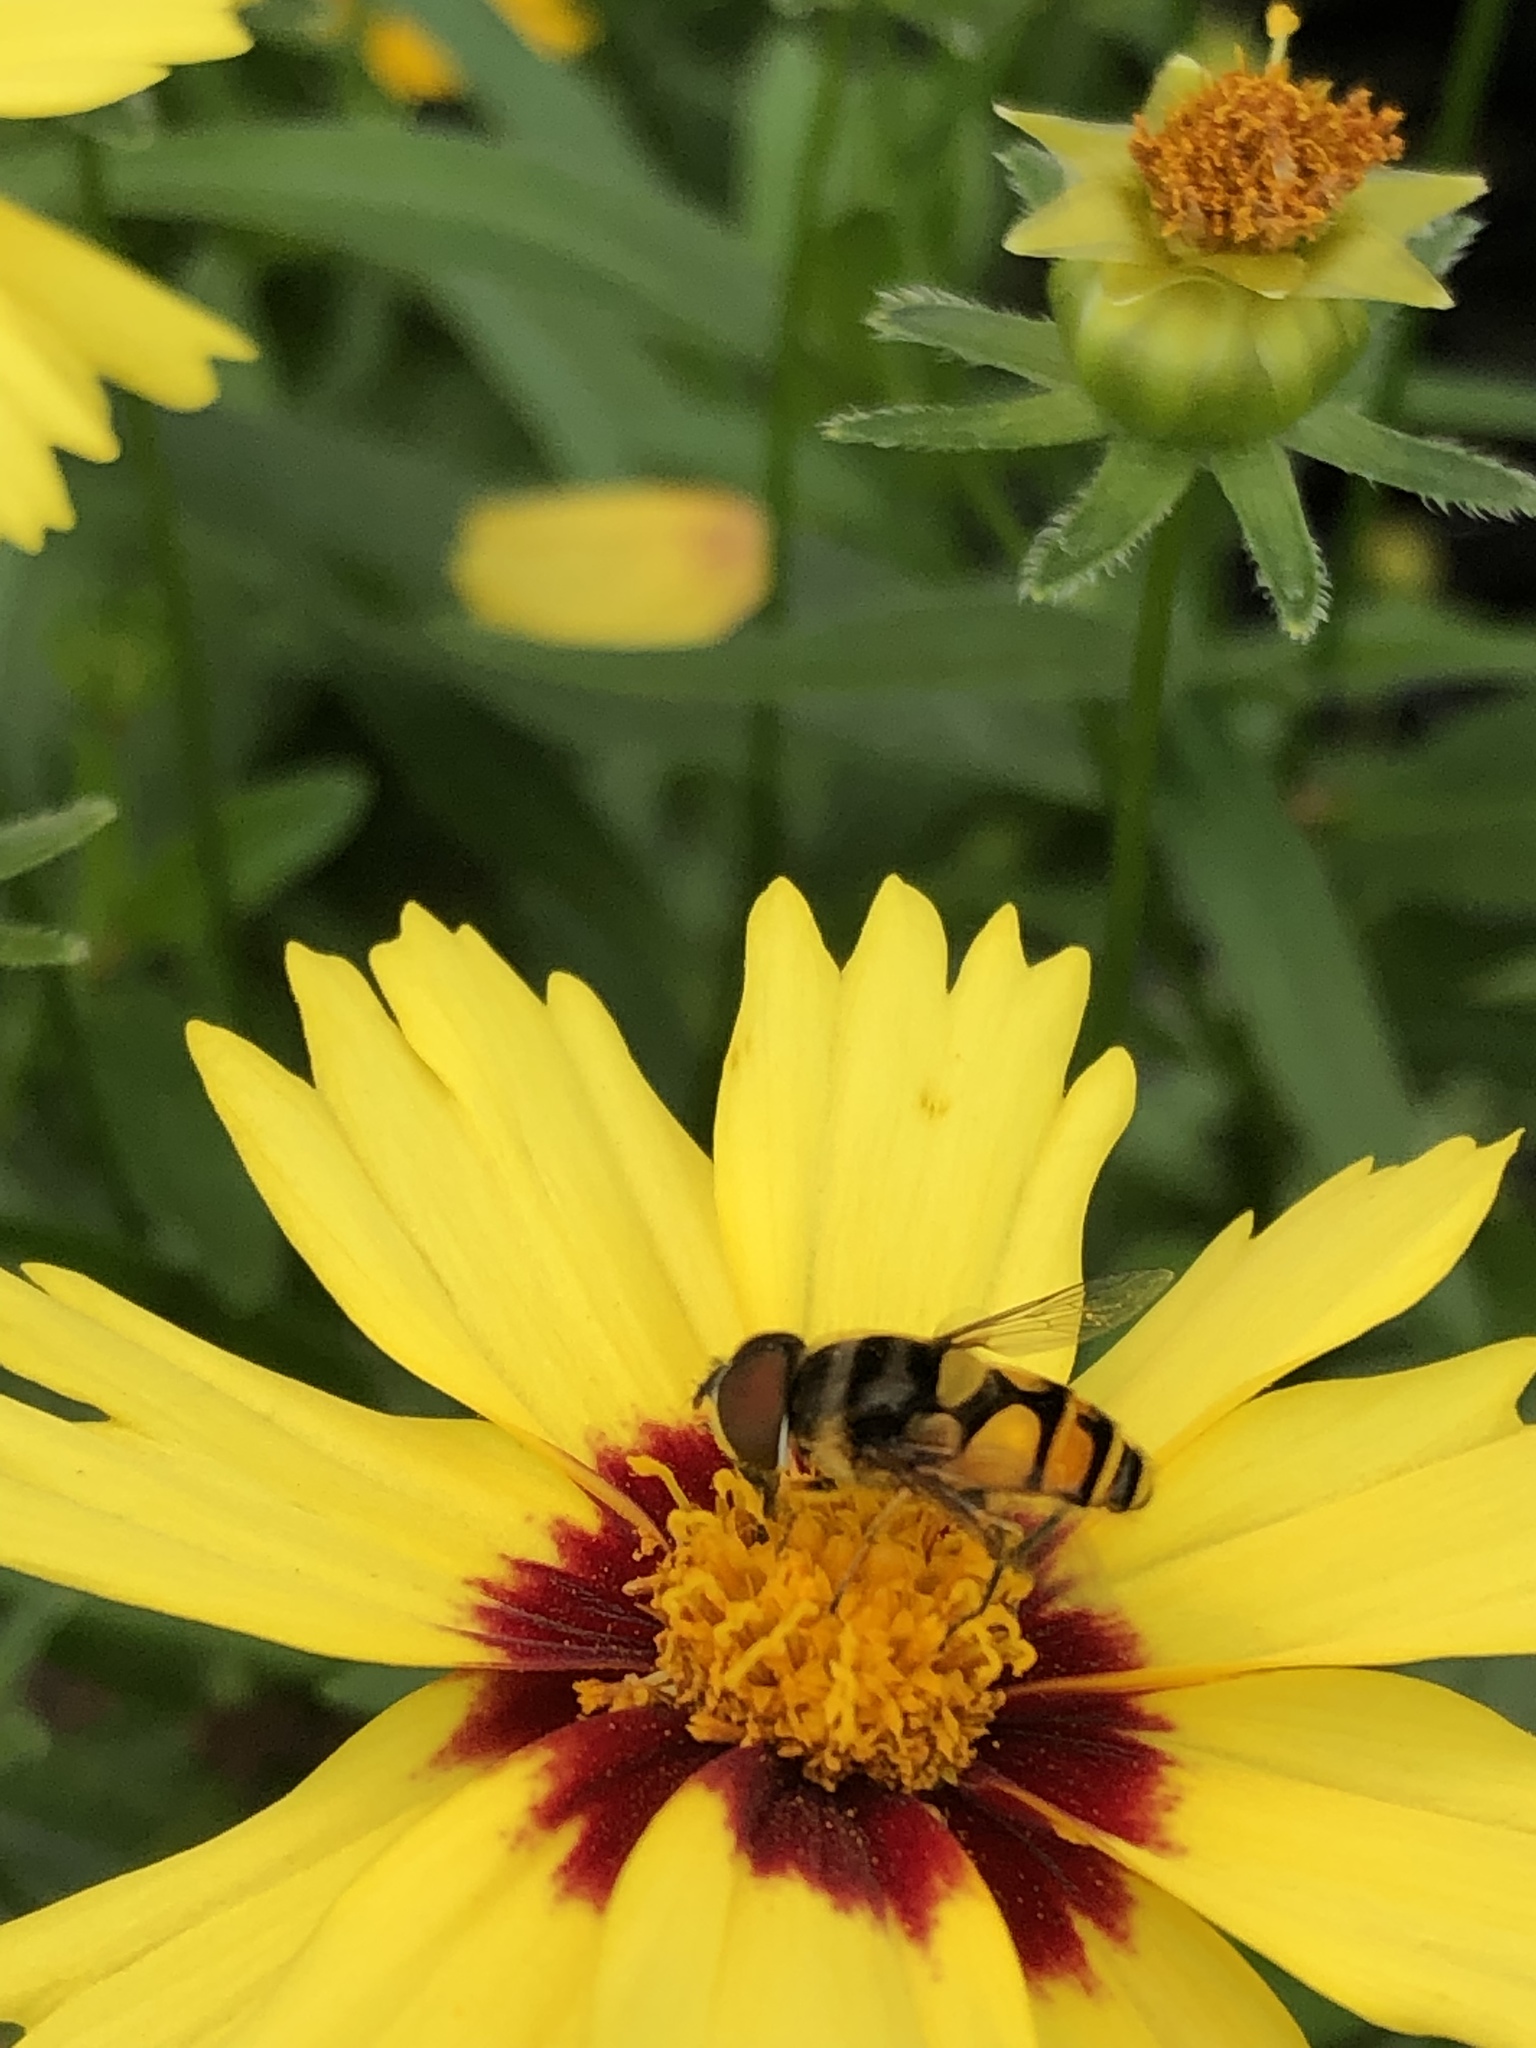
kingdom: Animalia
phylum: Arthropoda
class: Insecta
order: Diptera
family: Syrphidae
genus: Eristalis
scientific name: Eristalis transversa
